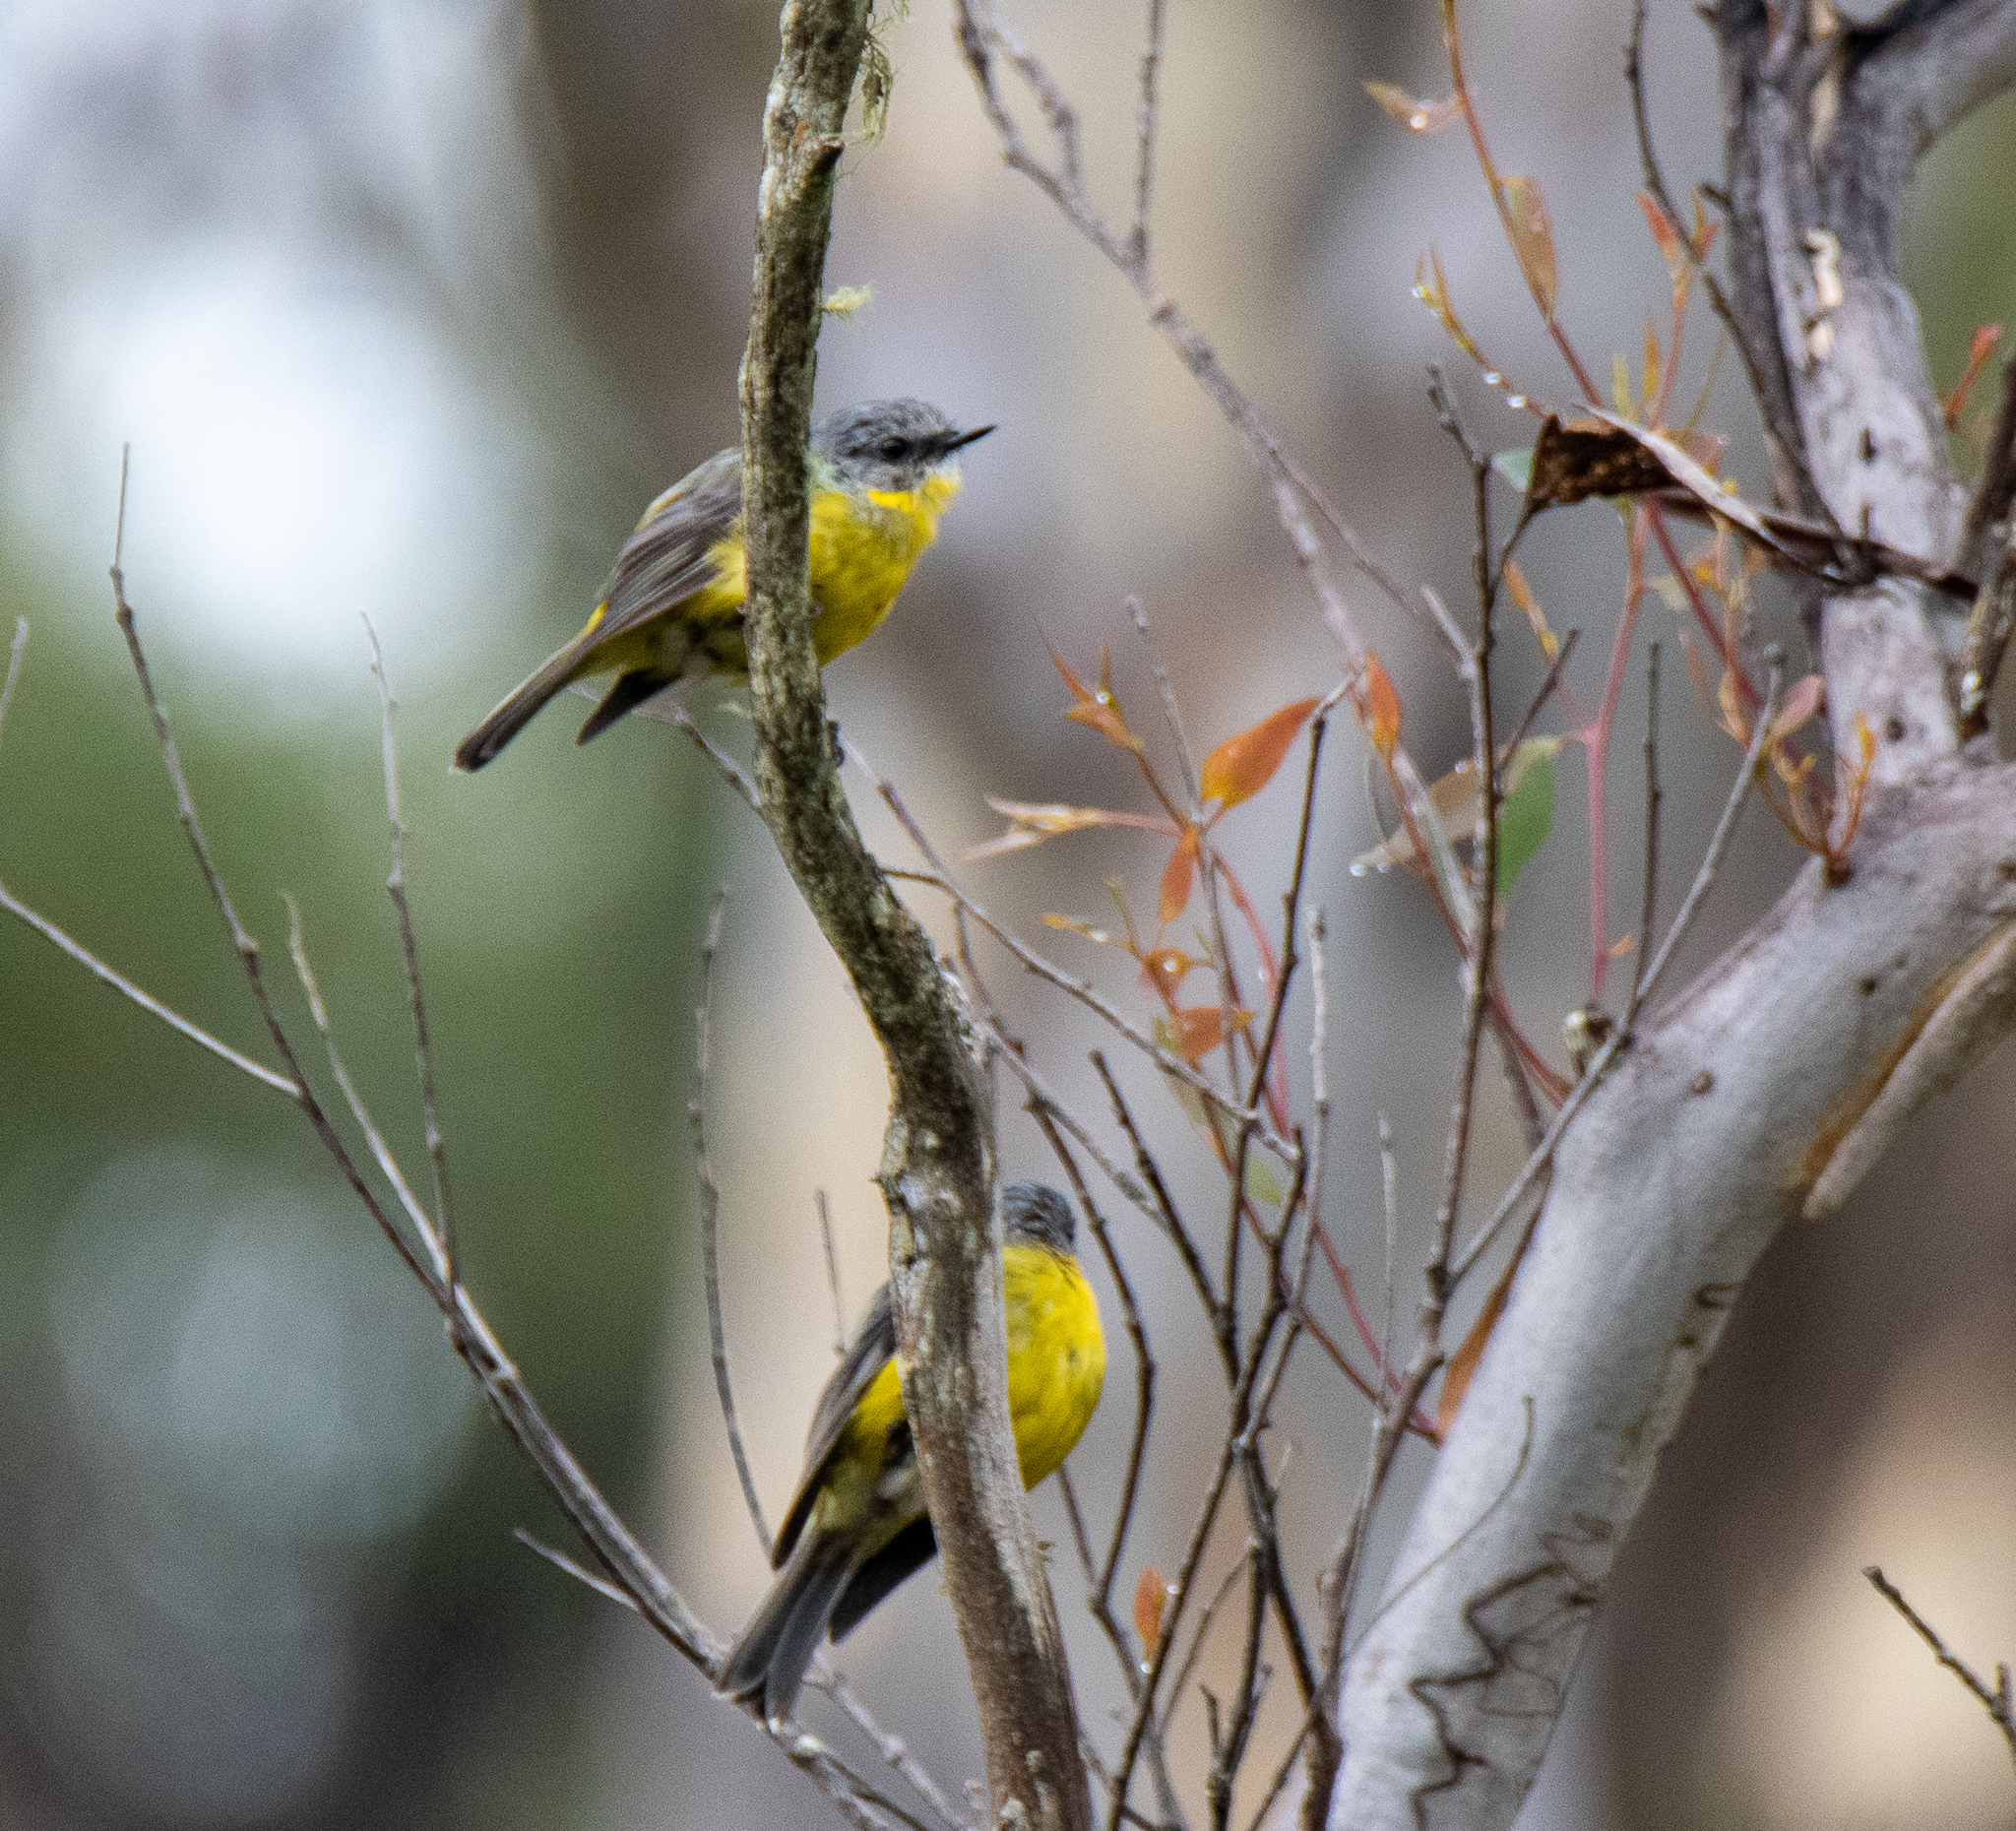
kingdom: Animalia
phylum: Chordata
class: Aves
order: Passeriformes
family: Petroicidae
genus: Eopsaltria
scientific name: Eopsaltria australis
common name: Eastern yellow robin
